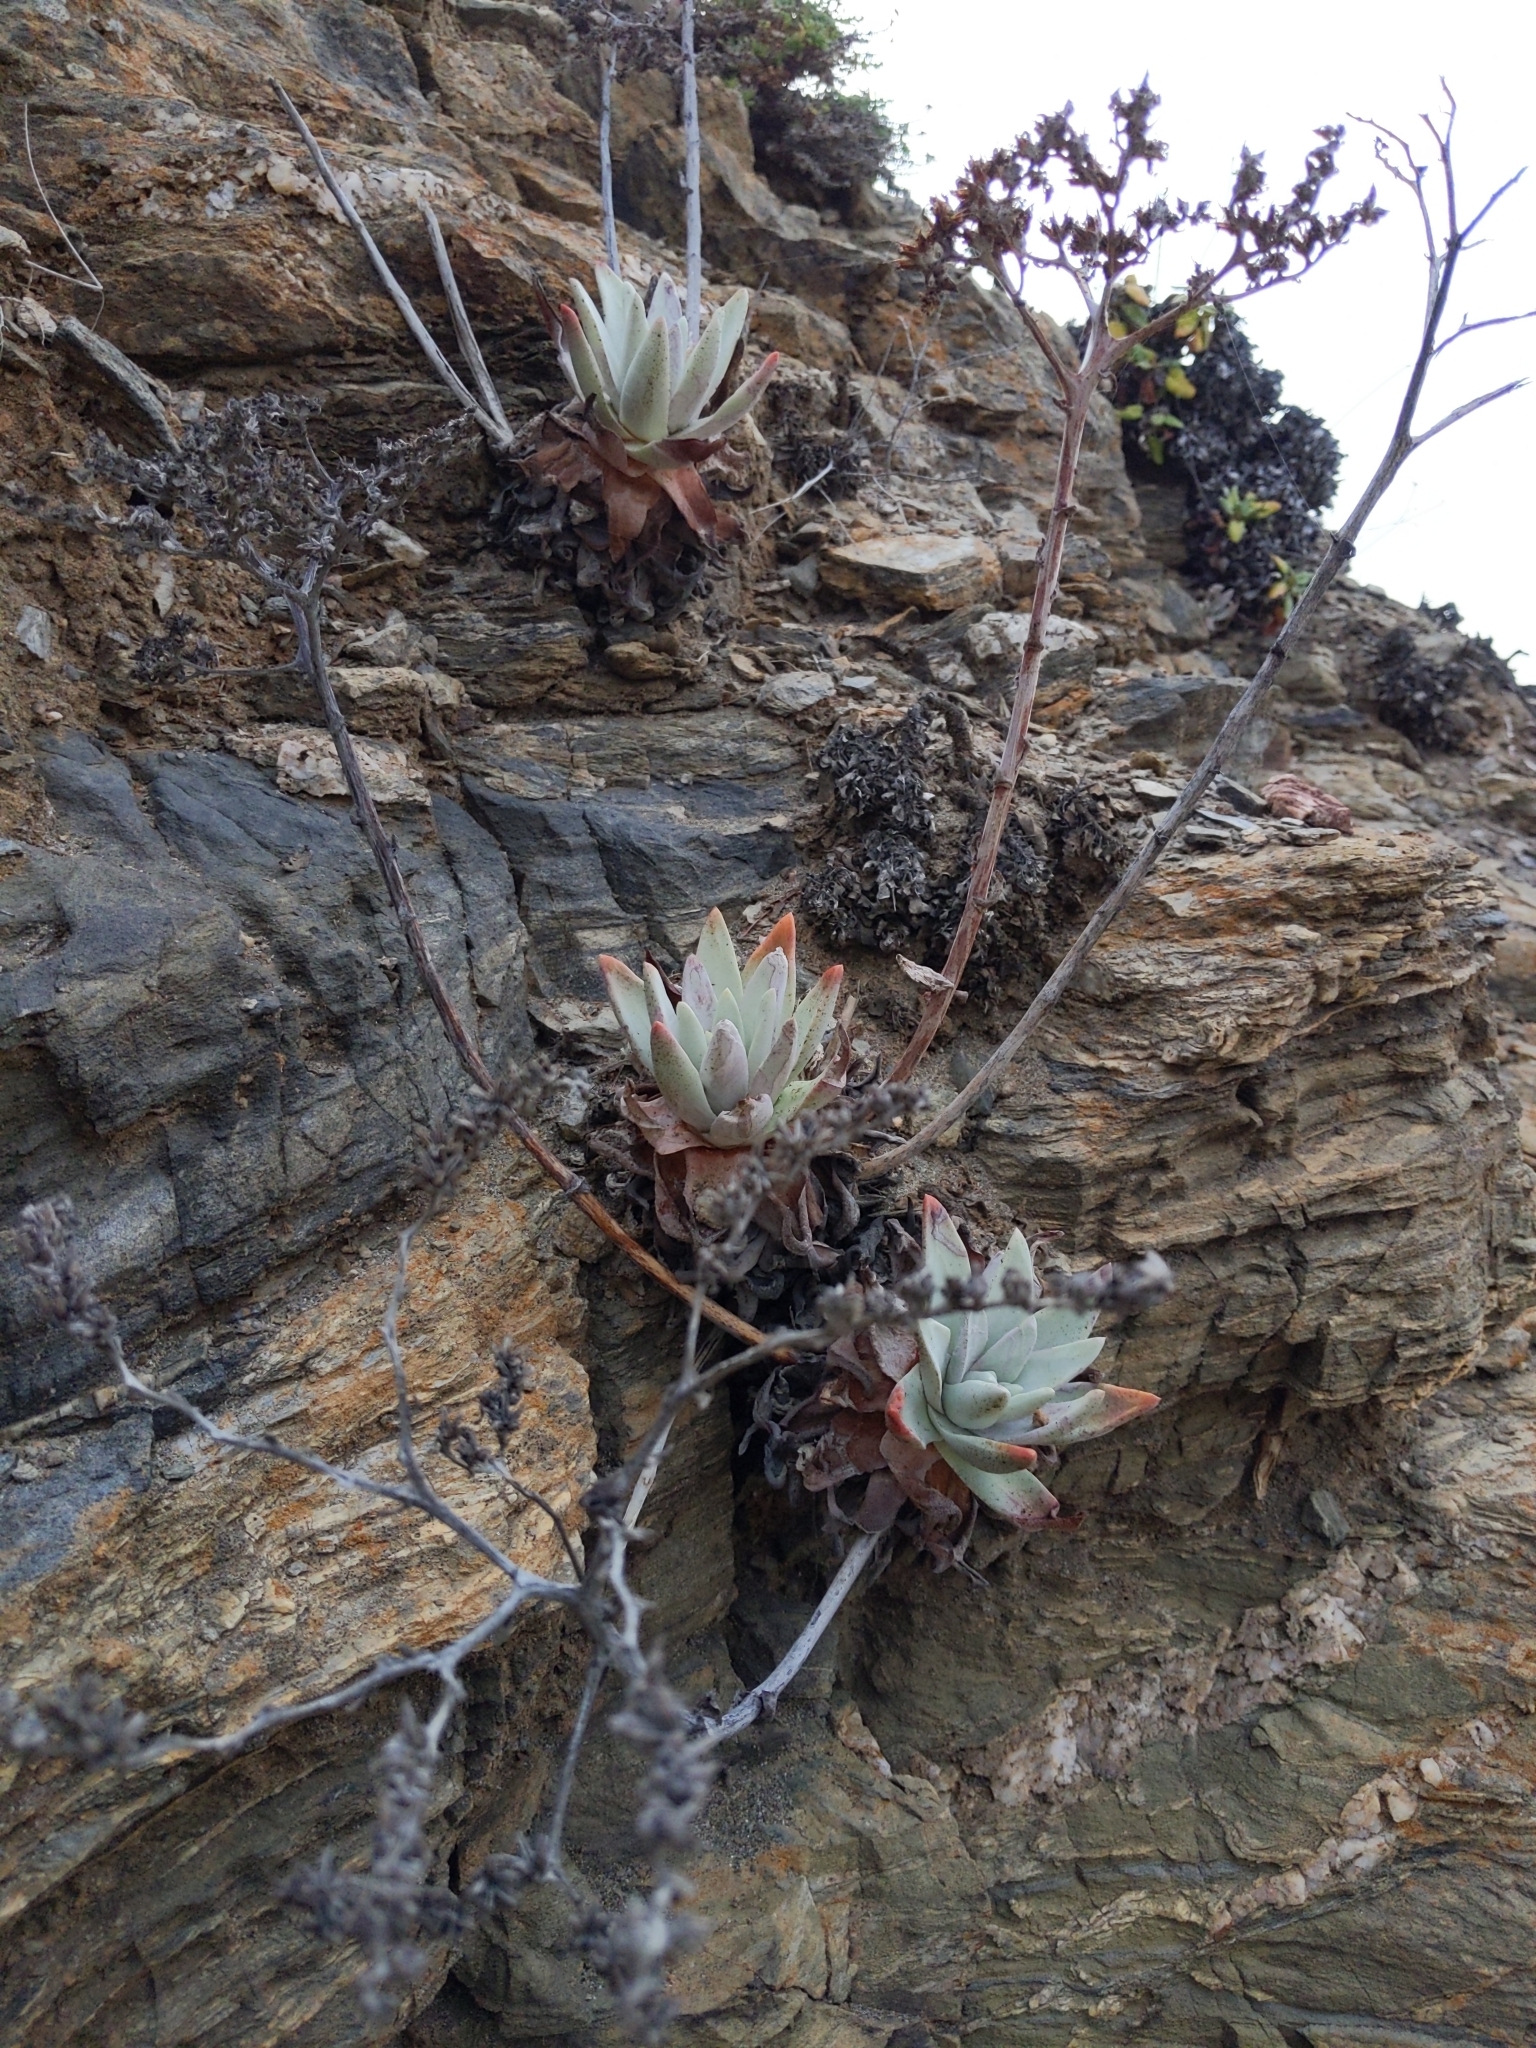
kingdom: Plantae
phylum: Tracheophyta
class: Magnoliopsida
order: Saxifragales
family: Crassulaceae
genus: Dudleya
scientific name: Dudleya virens
